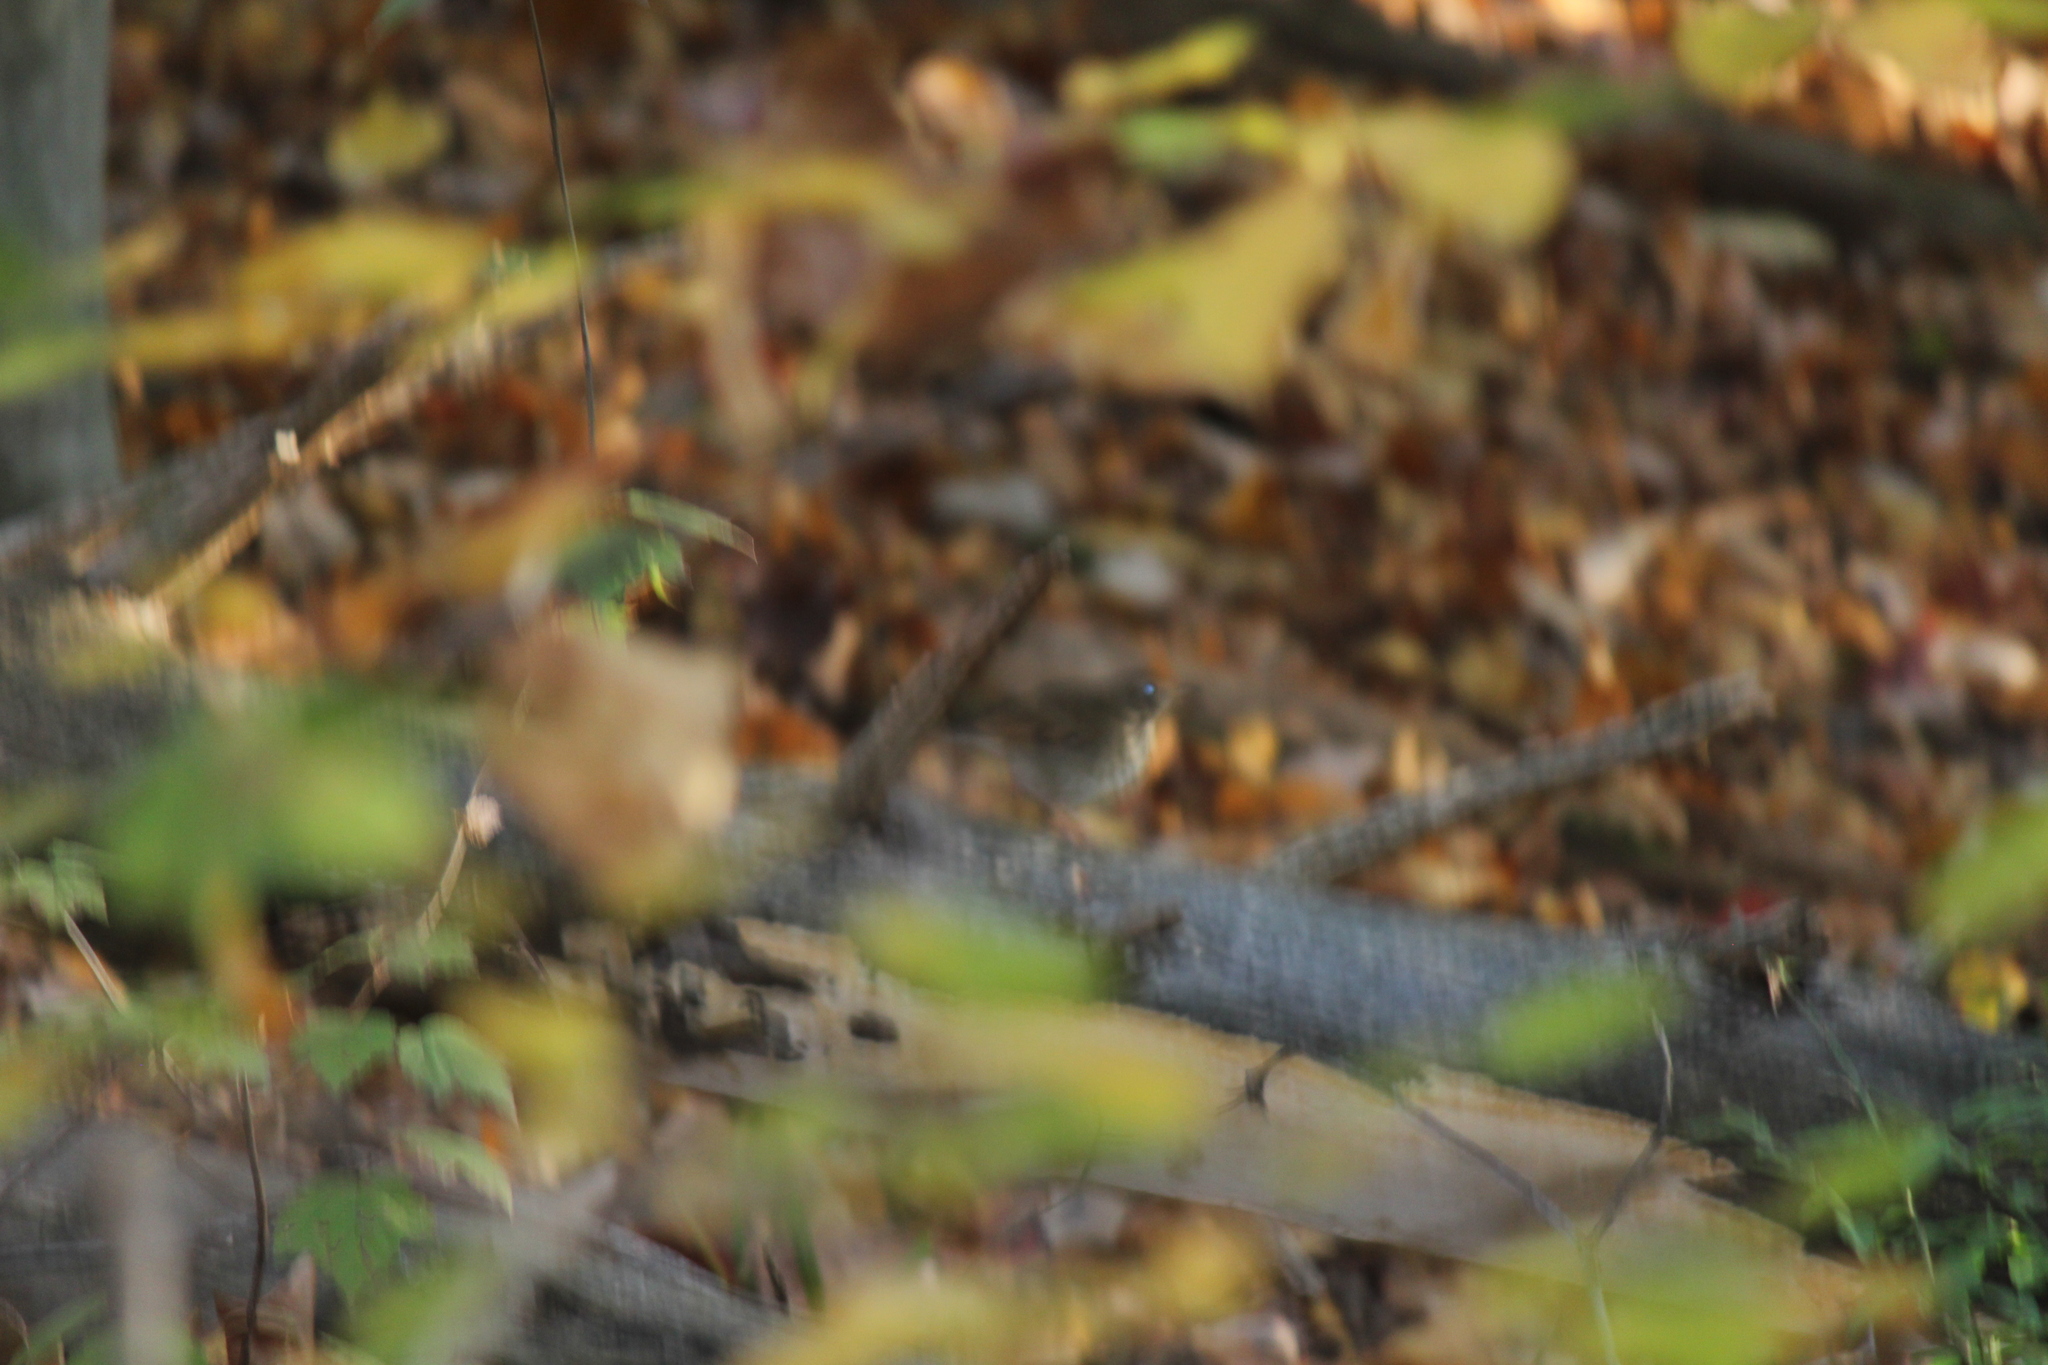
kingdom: Animalia
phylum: Chordata
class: Aves
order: Passeriformes
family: Turdidae
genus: Catharus
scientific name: Catharus guttatus
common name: Hermit thrush
